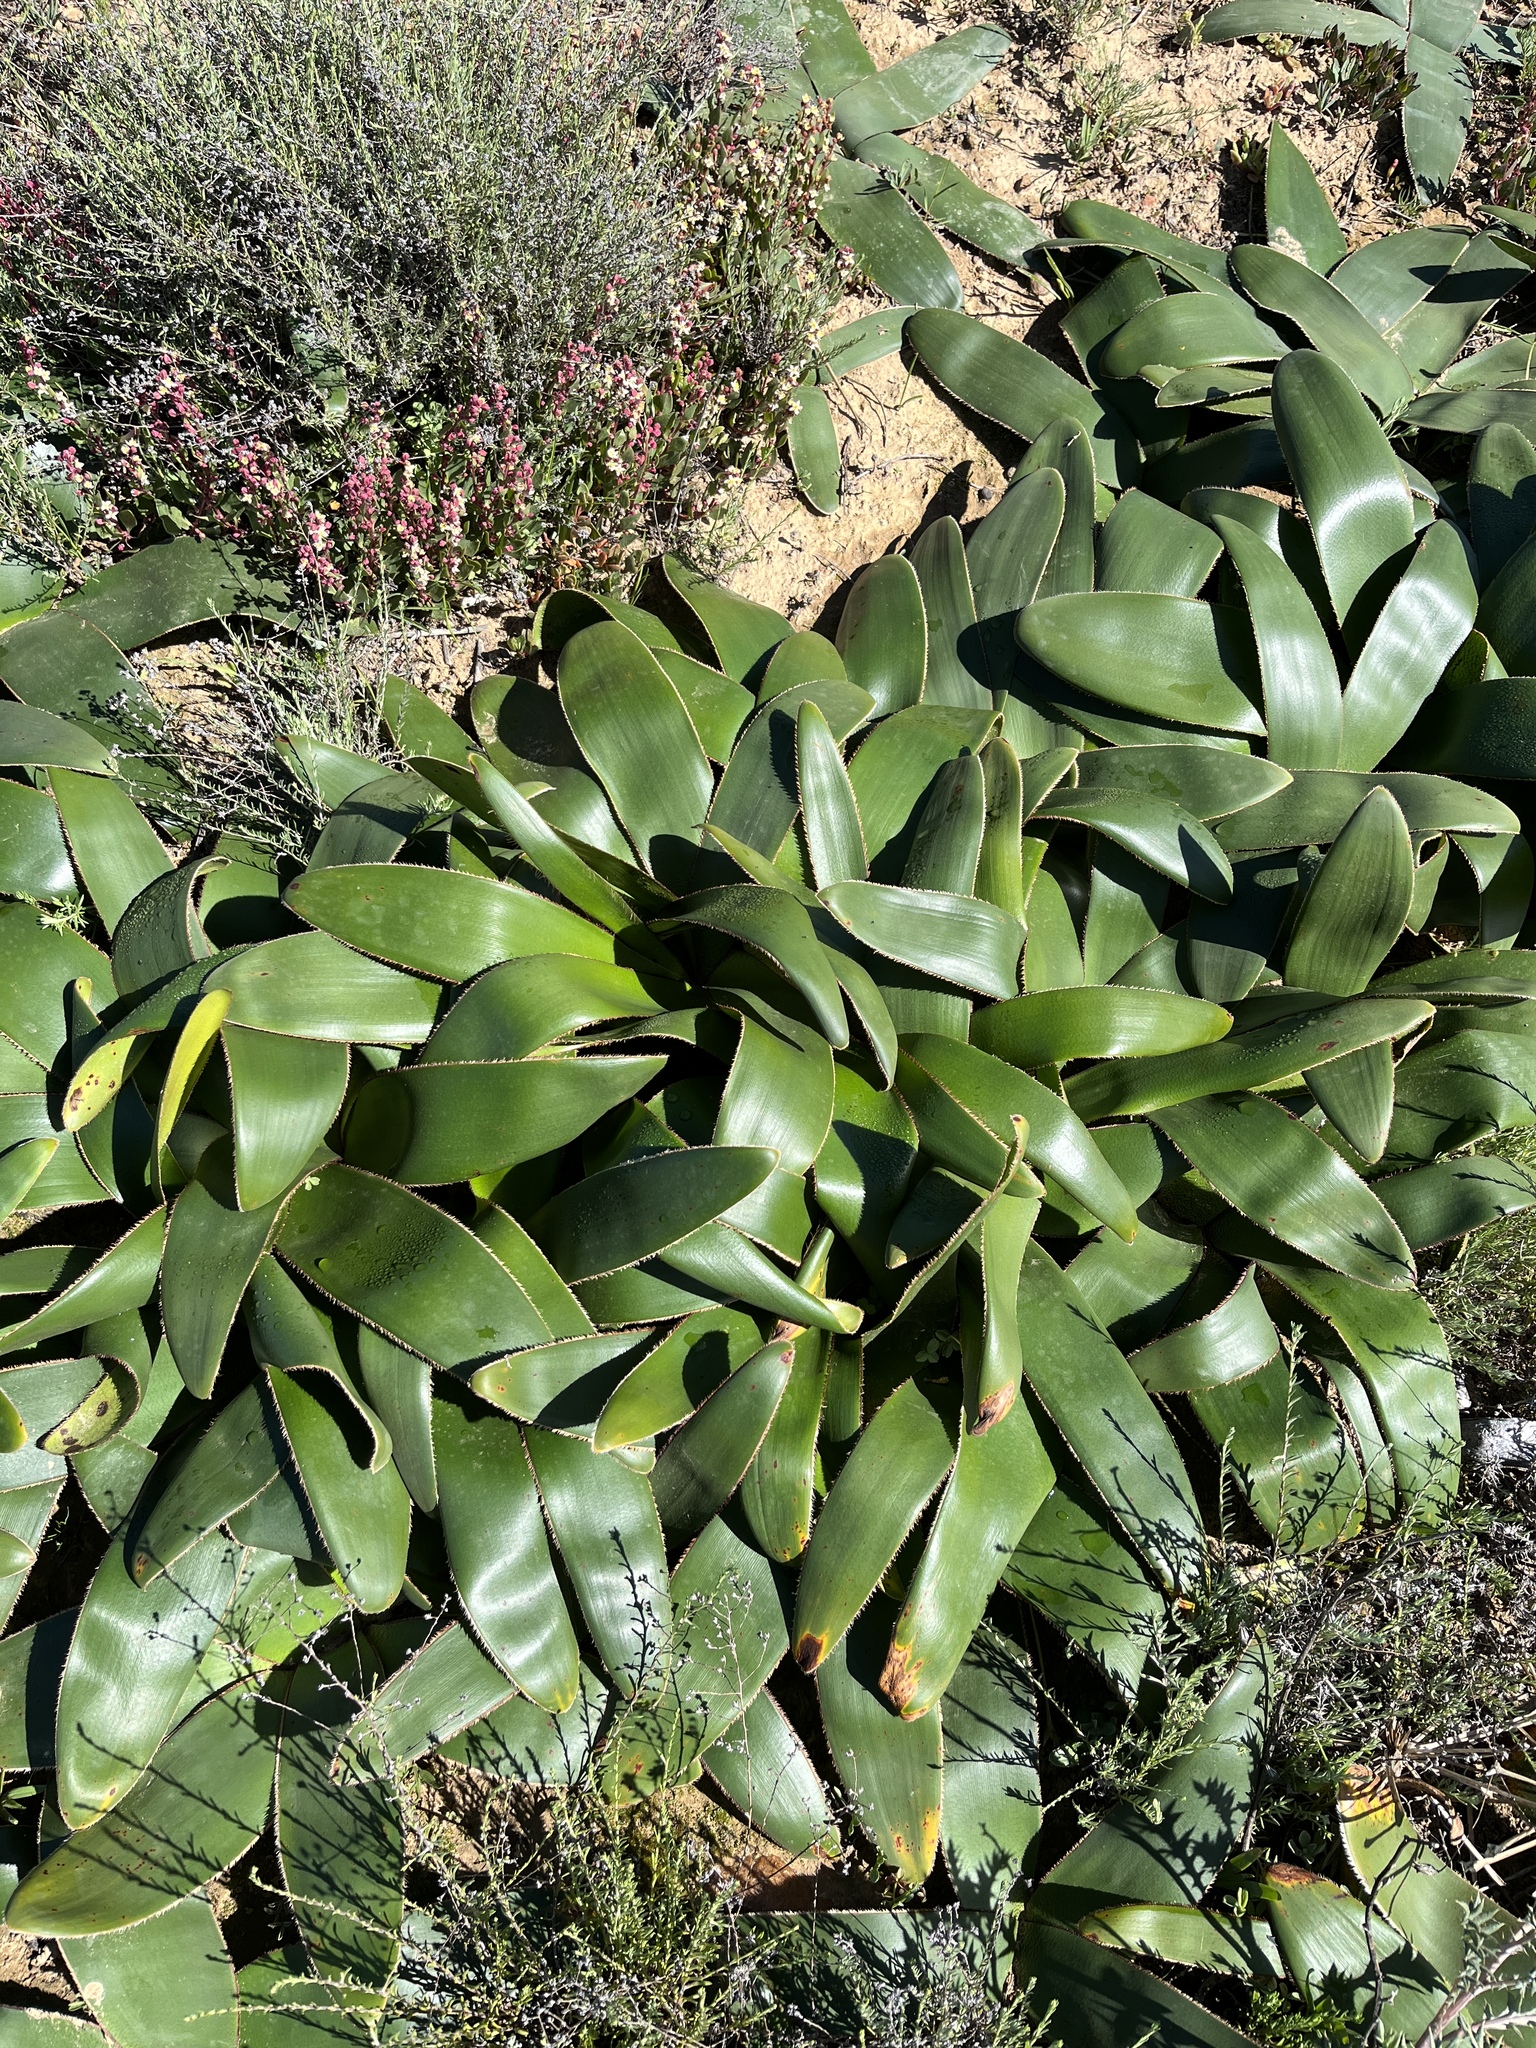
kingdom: Plantae
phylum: Tracheophyta
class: Liliopsida
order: Asparagales
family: Amaryllidaceae
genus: Crossyne
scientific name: Crossyne flava
